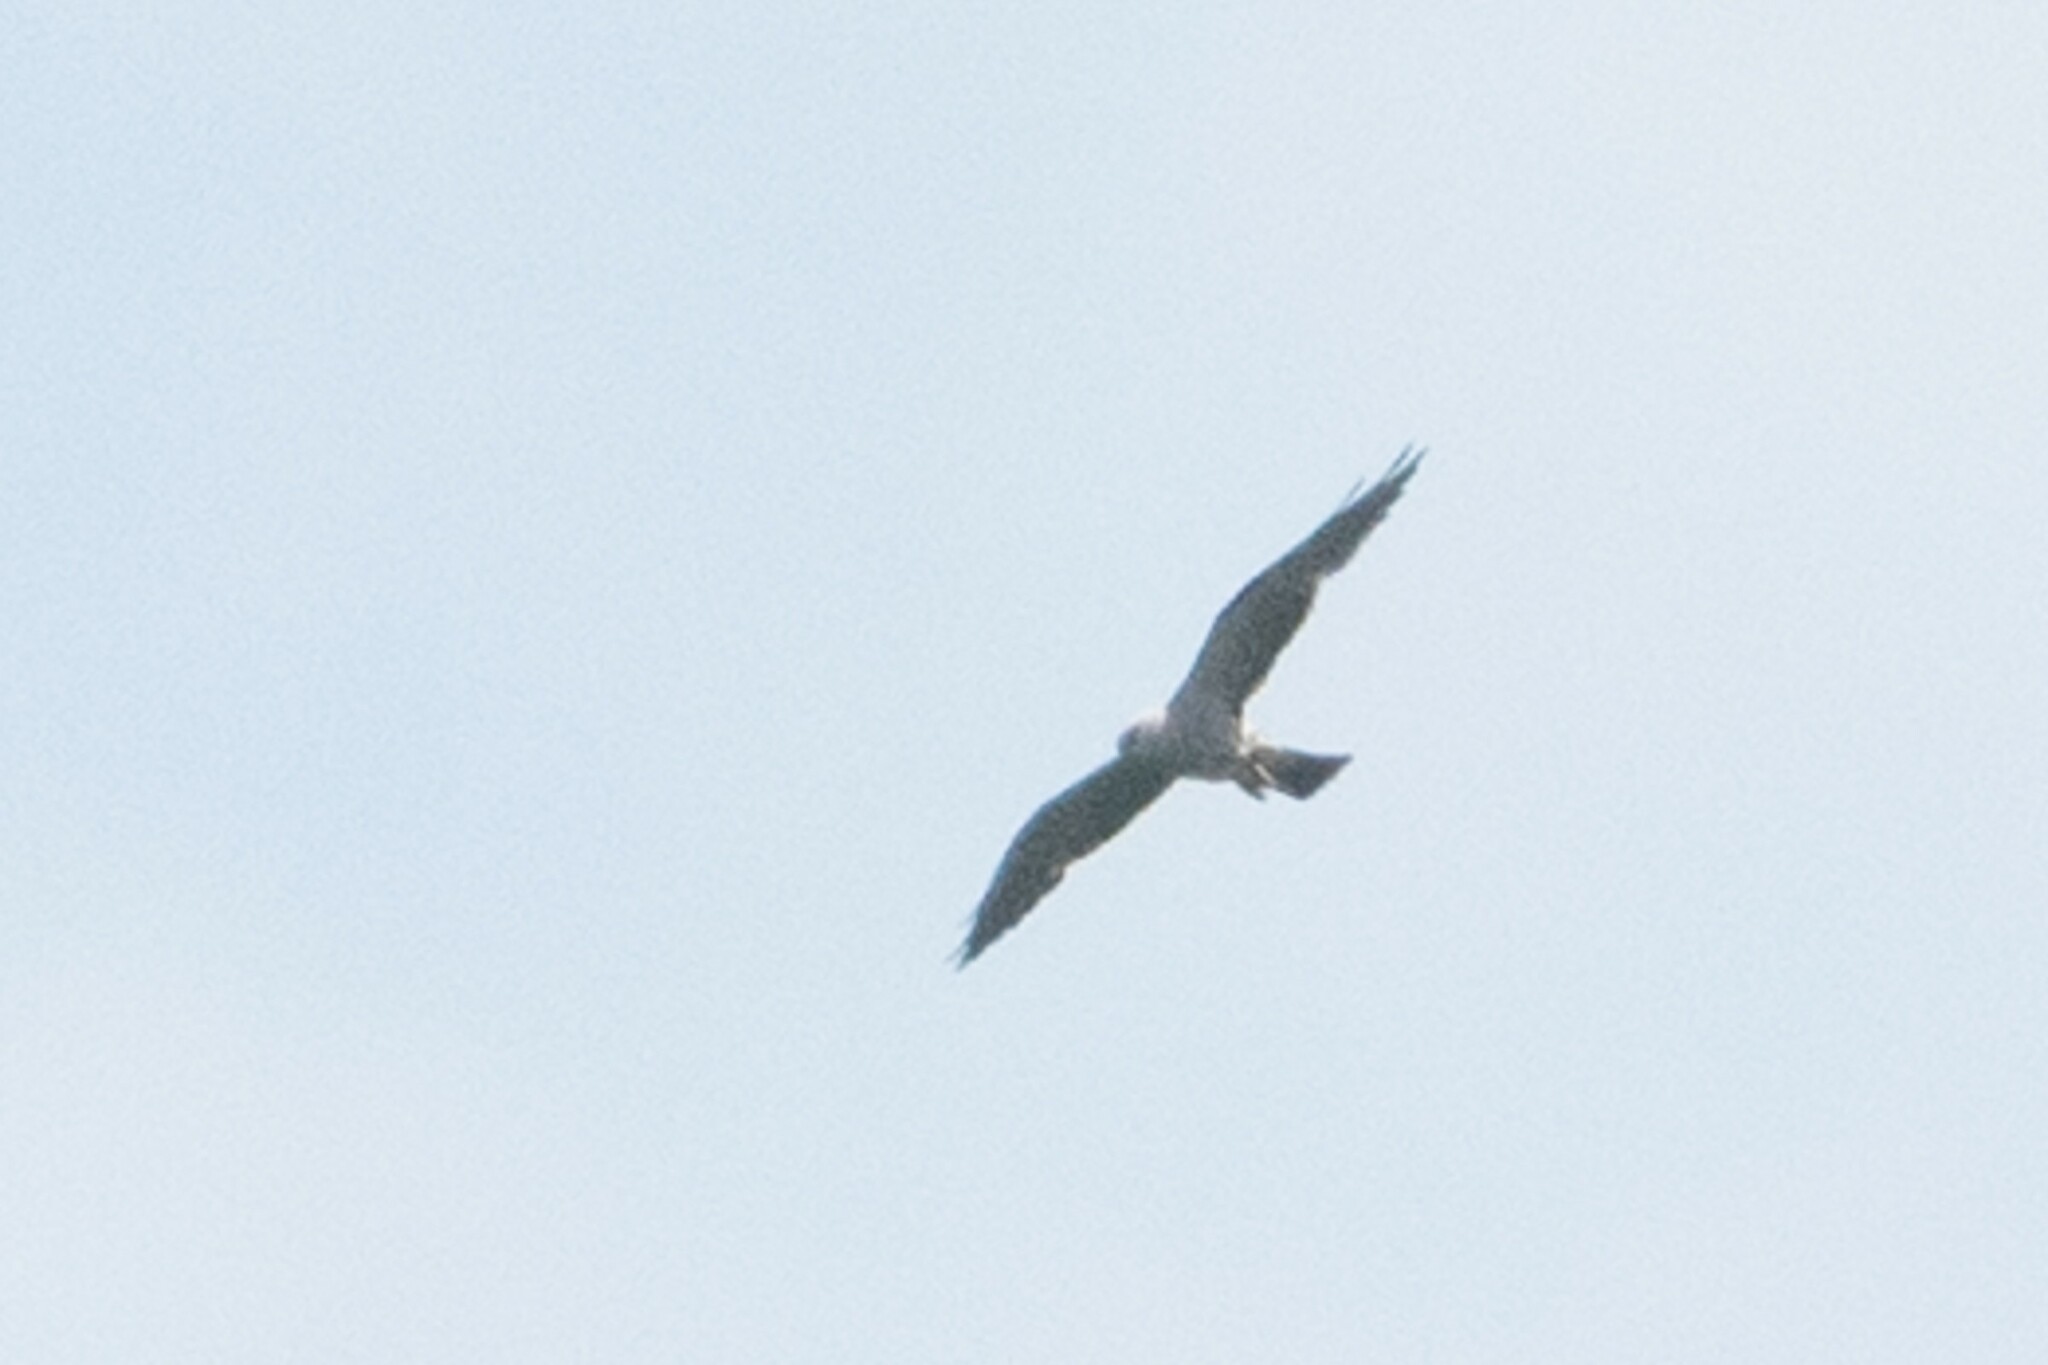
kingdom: Animalia
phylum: Chordata
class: Aves
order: Accipitriformes
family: Accipitridae
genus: Ictinia
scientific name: Ictinia mississippiensis
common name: Mississippi kite
